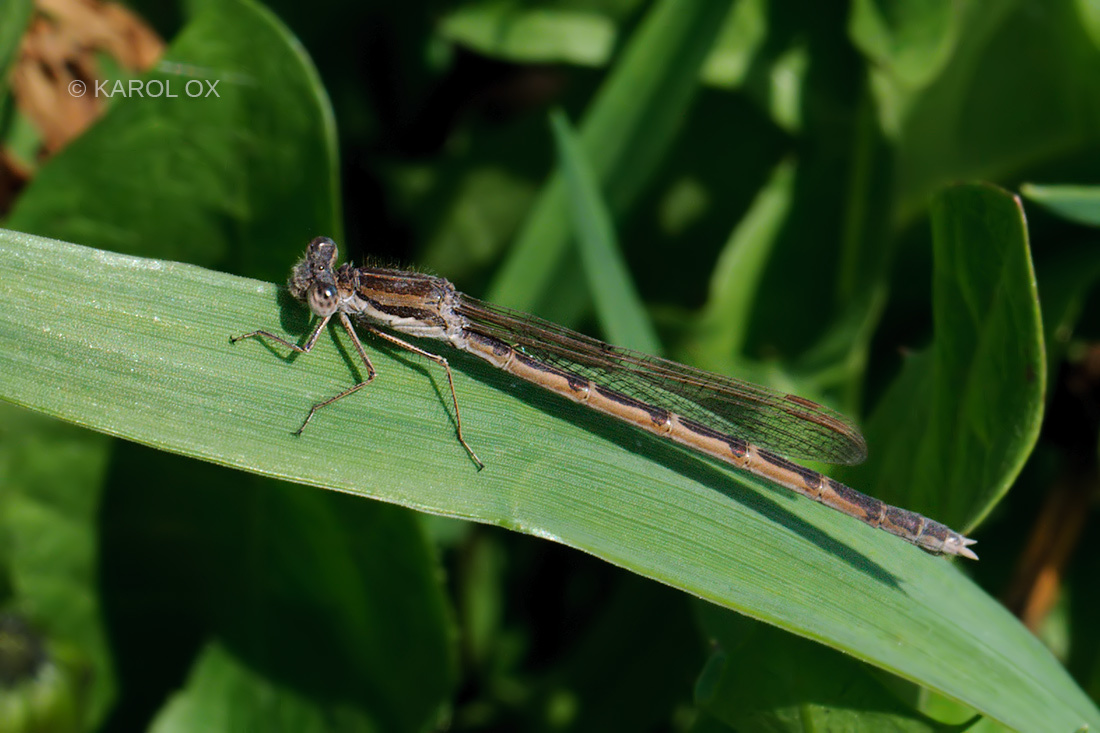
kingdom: Animalia
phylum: Arthropoda
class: Insecta
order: Odonata
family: Lestidae
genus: Sympecma
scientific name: Sympecma fusca
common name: Common winter damsel
